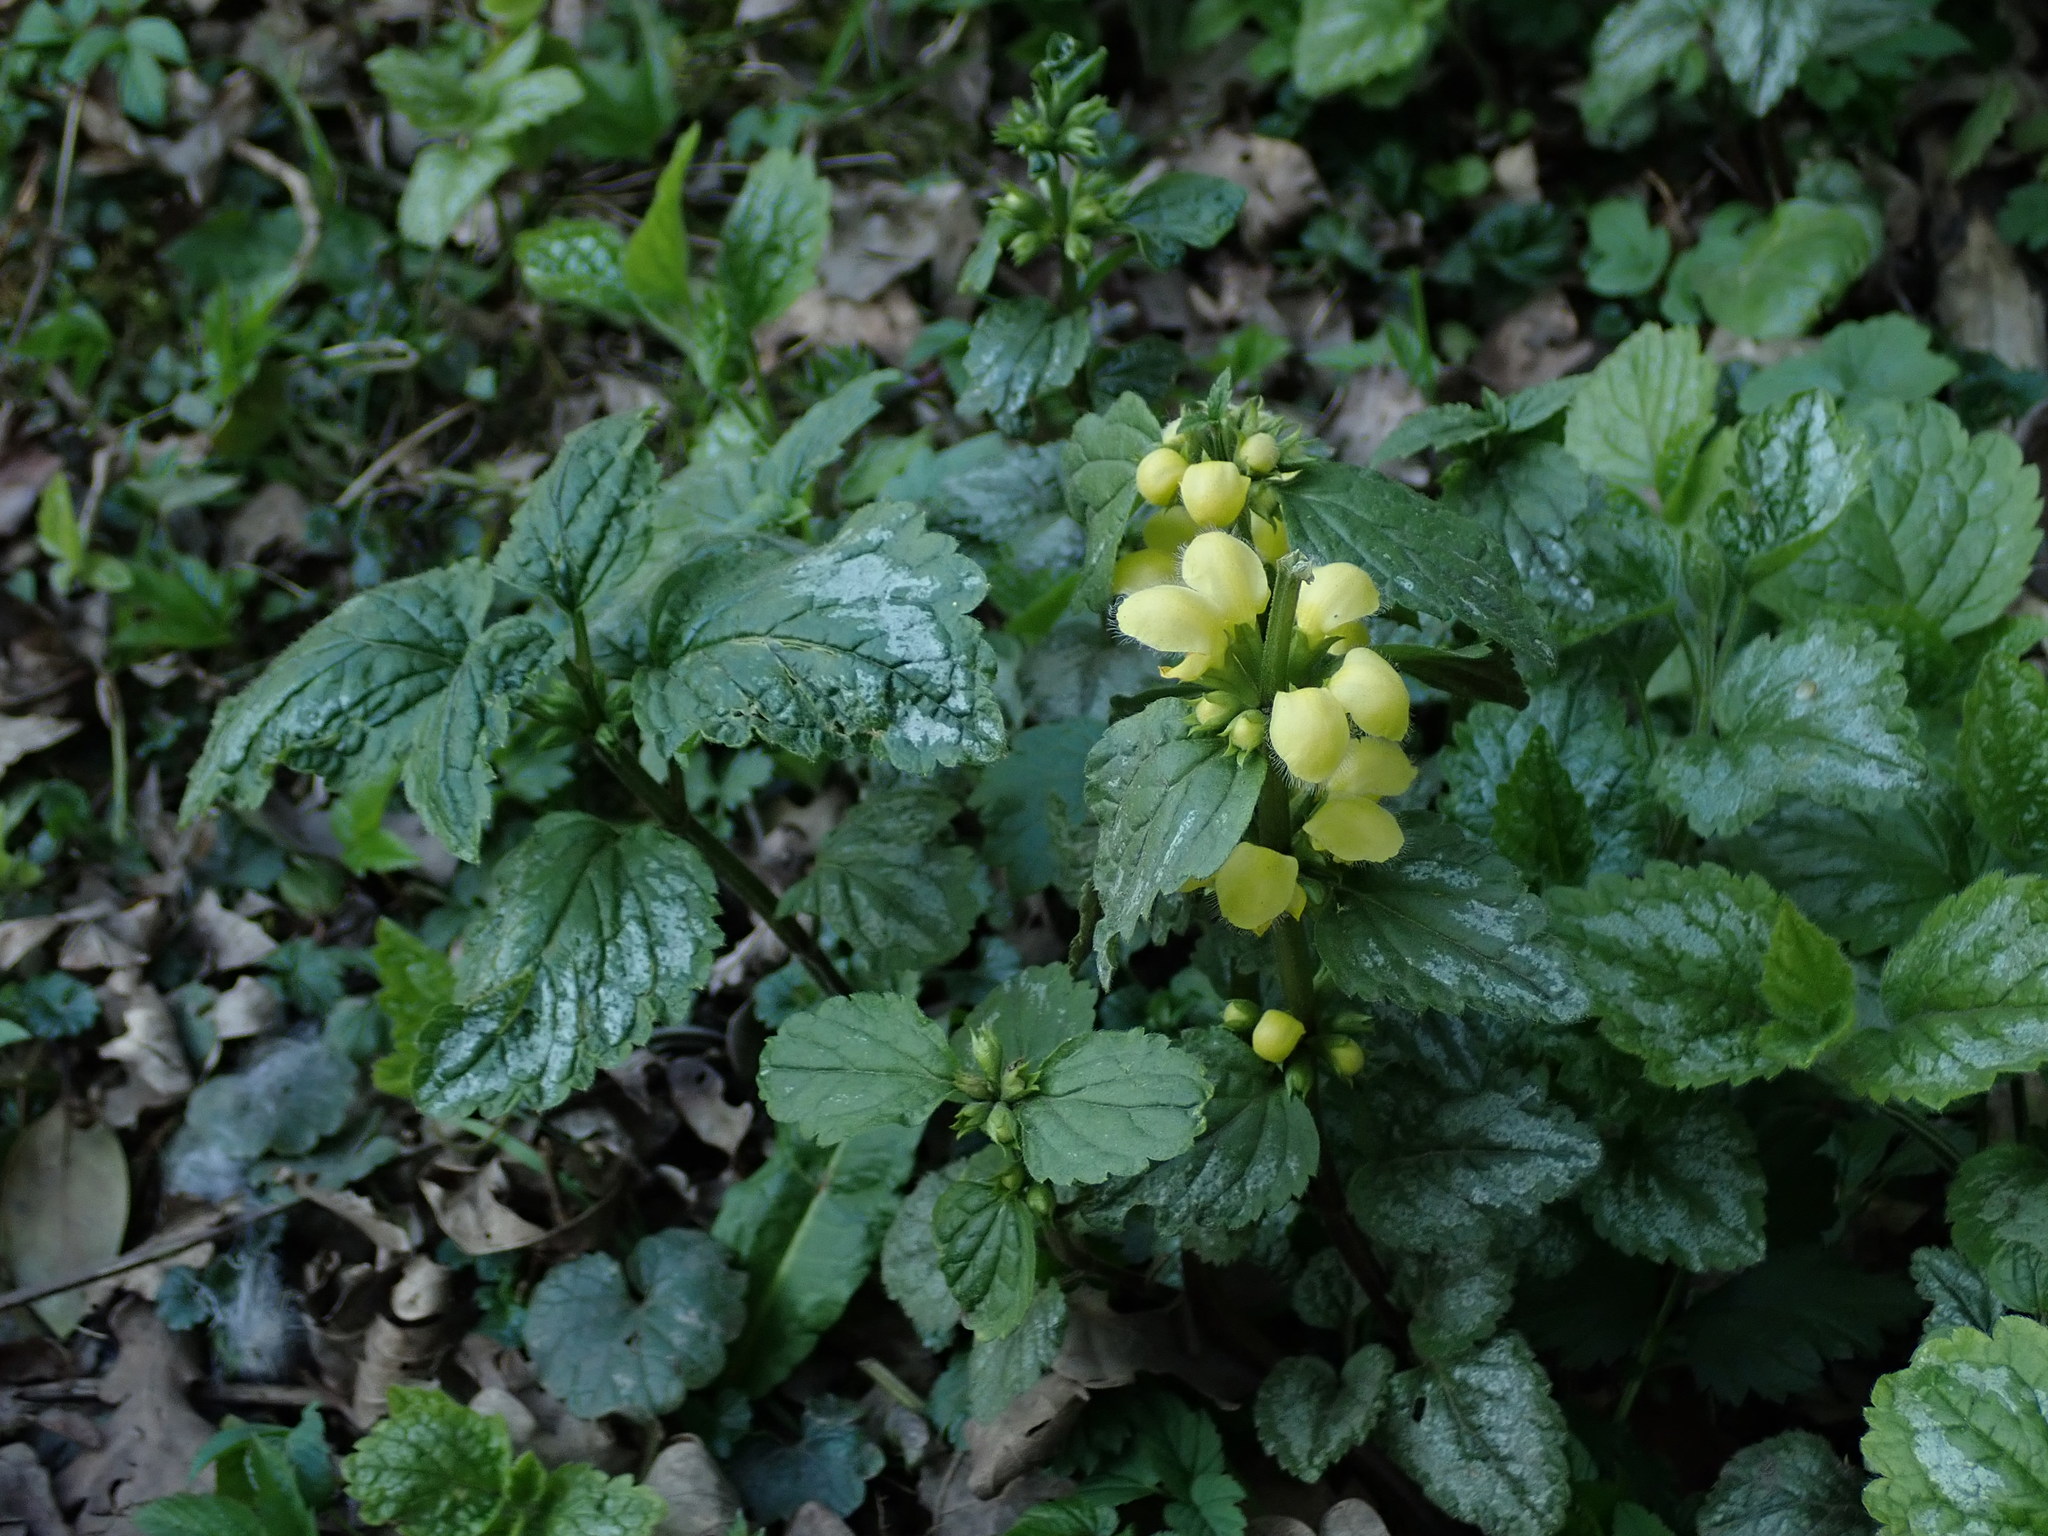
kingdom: Plantae
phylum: Tracheophyta
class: Magnoliopsida
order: Lamiales
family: Lamiaceae
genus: Lamium
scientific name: Lamium galeobdolon
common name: Yellow archangel
